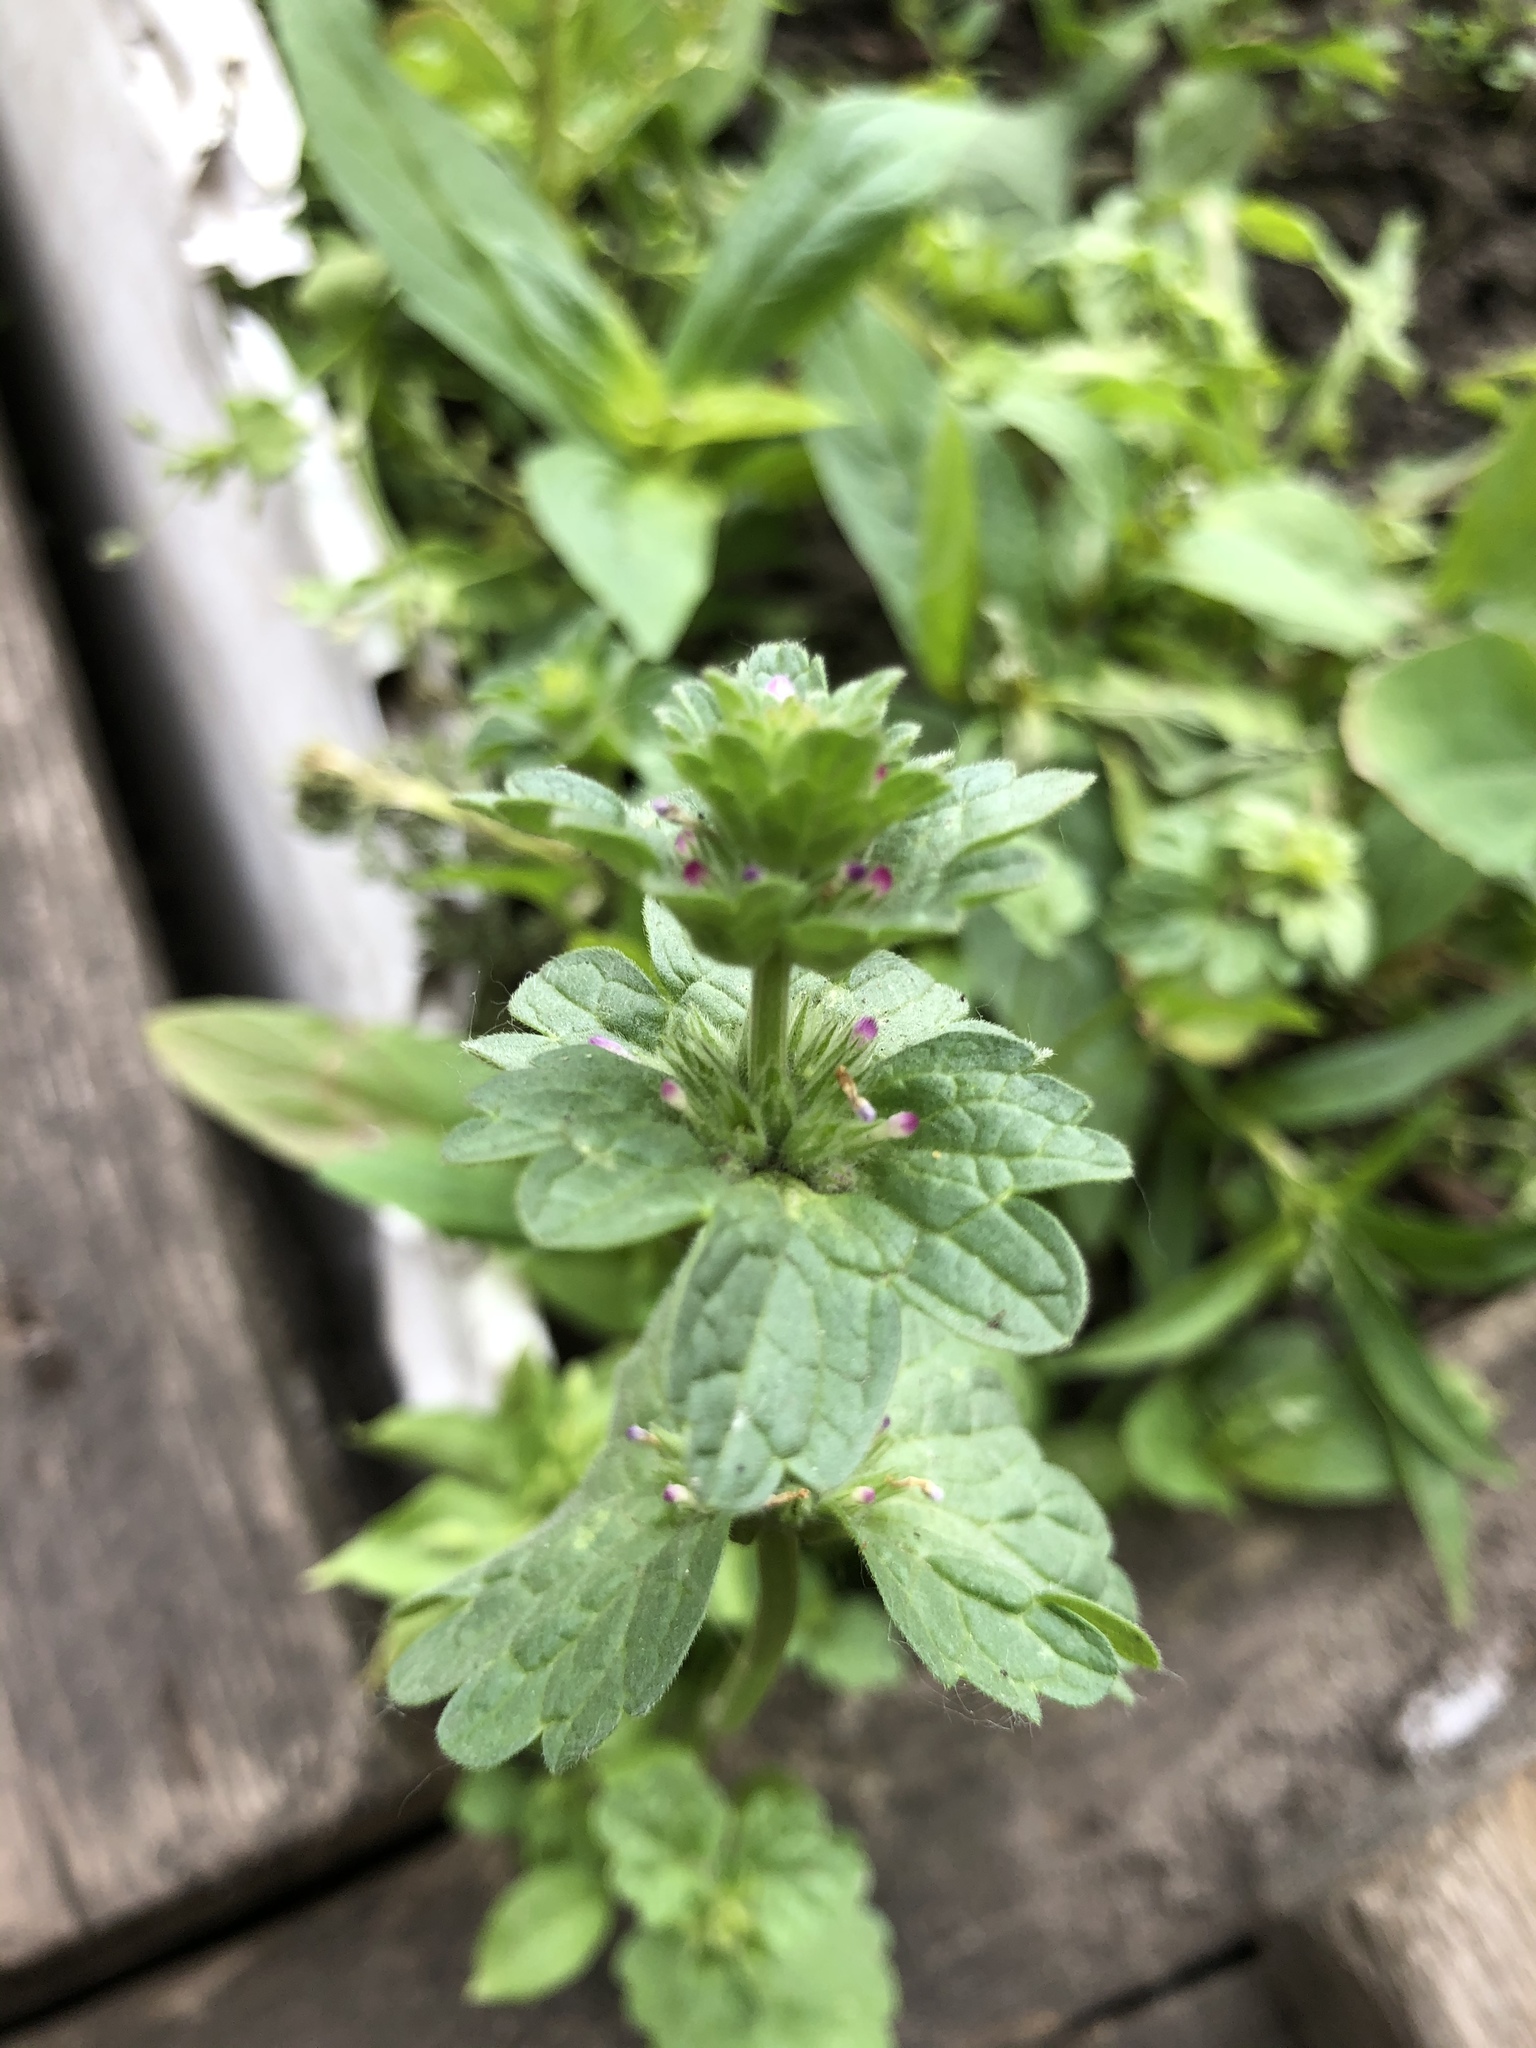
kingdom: Plantae
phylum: Tracheophyta
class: Magnoliopsida
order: Lamiales
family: Lamiaceae
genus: Lamium
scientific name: Lamium amplexicaule
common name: Henbit dead-nettle
